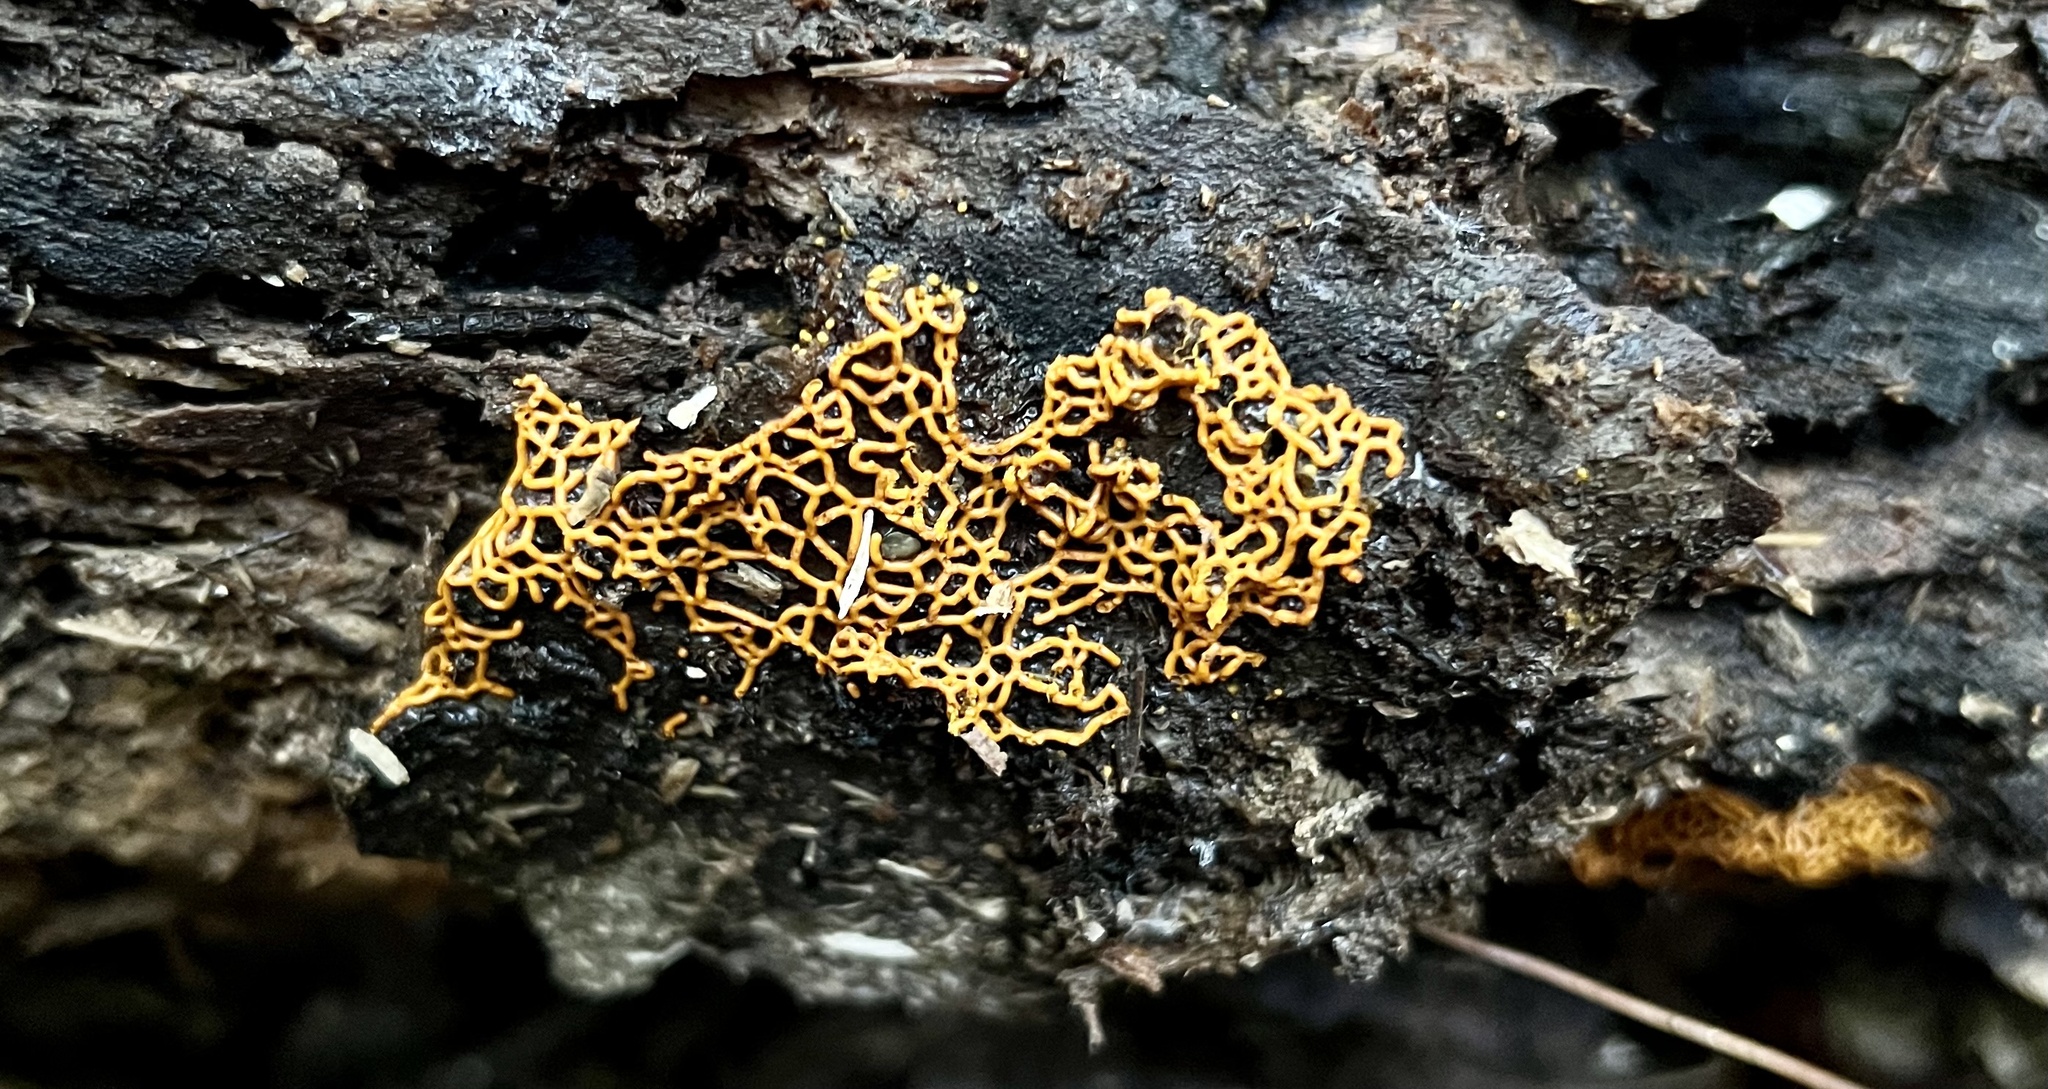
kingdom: Protozoa
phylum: Mycetozoa
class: Myxomycetes
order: Trichiales
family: Arcyriaceae
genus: Hemitrichia
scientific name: Hemitrichia serpula
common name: Pretzel slime mold
